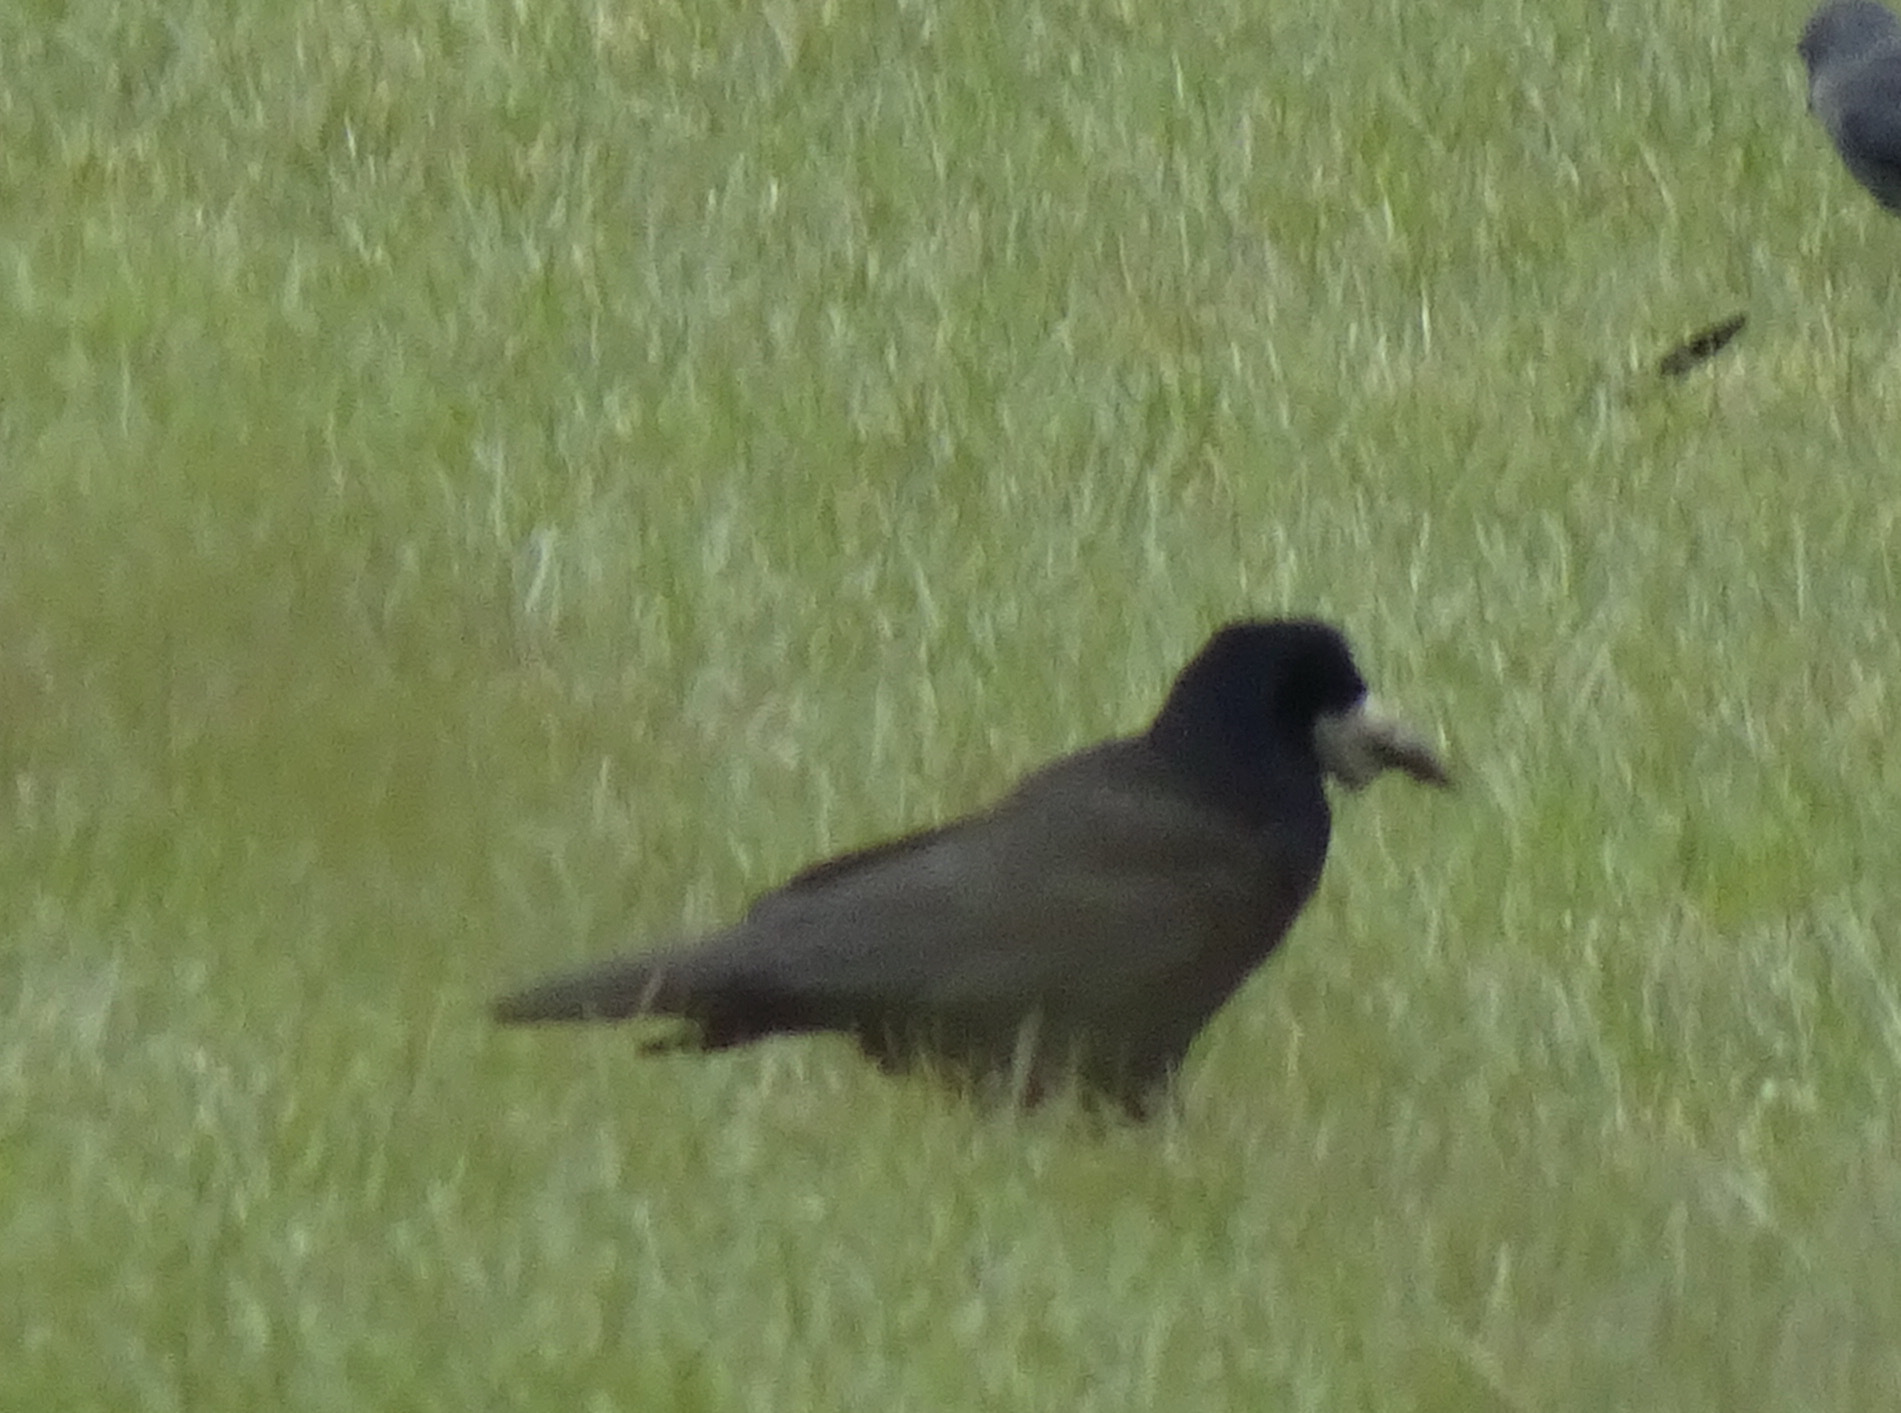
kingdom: Animalia
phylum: Chordata
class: Aves
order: Passeriformes
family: Corvidae
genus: Corvus
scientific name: Corvus frugilegus
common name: Rook
